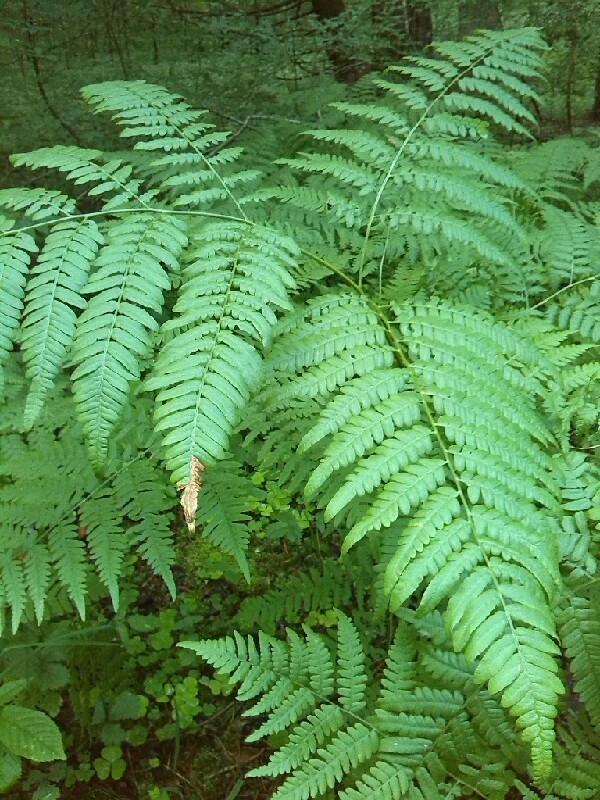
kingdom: Plantae
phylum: Tracheophyta
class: Polypodiopsida
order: Polypodiales
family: Dennstaedtiaceae
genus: Pteridium
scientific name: Pteridium aquilinum
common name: Bracken
